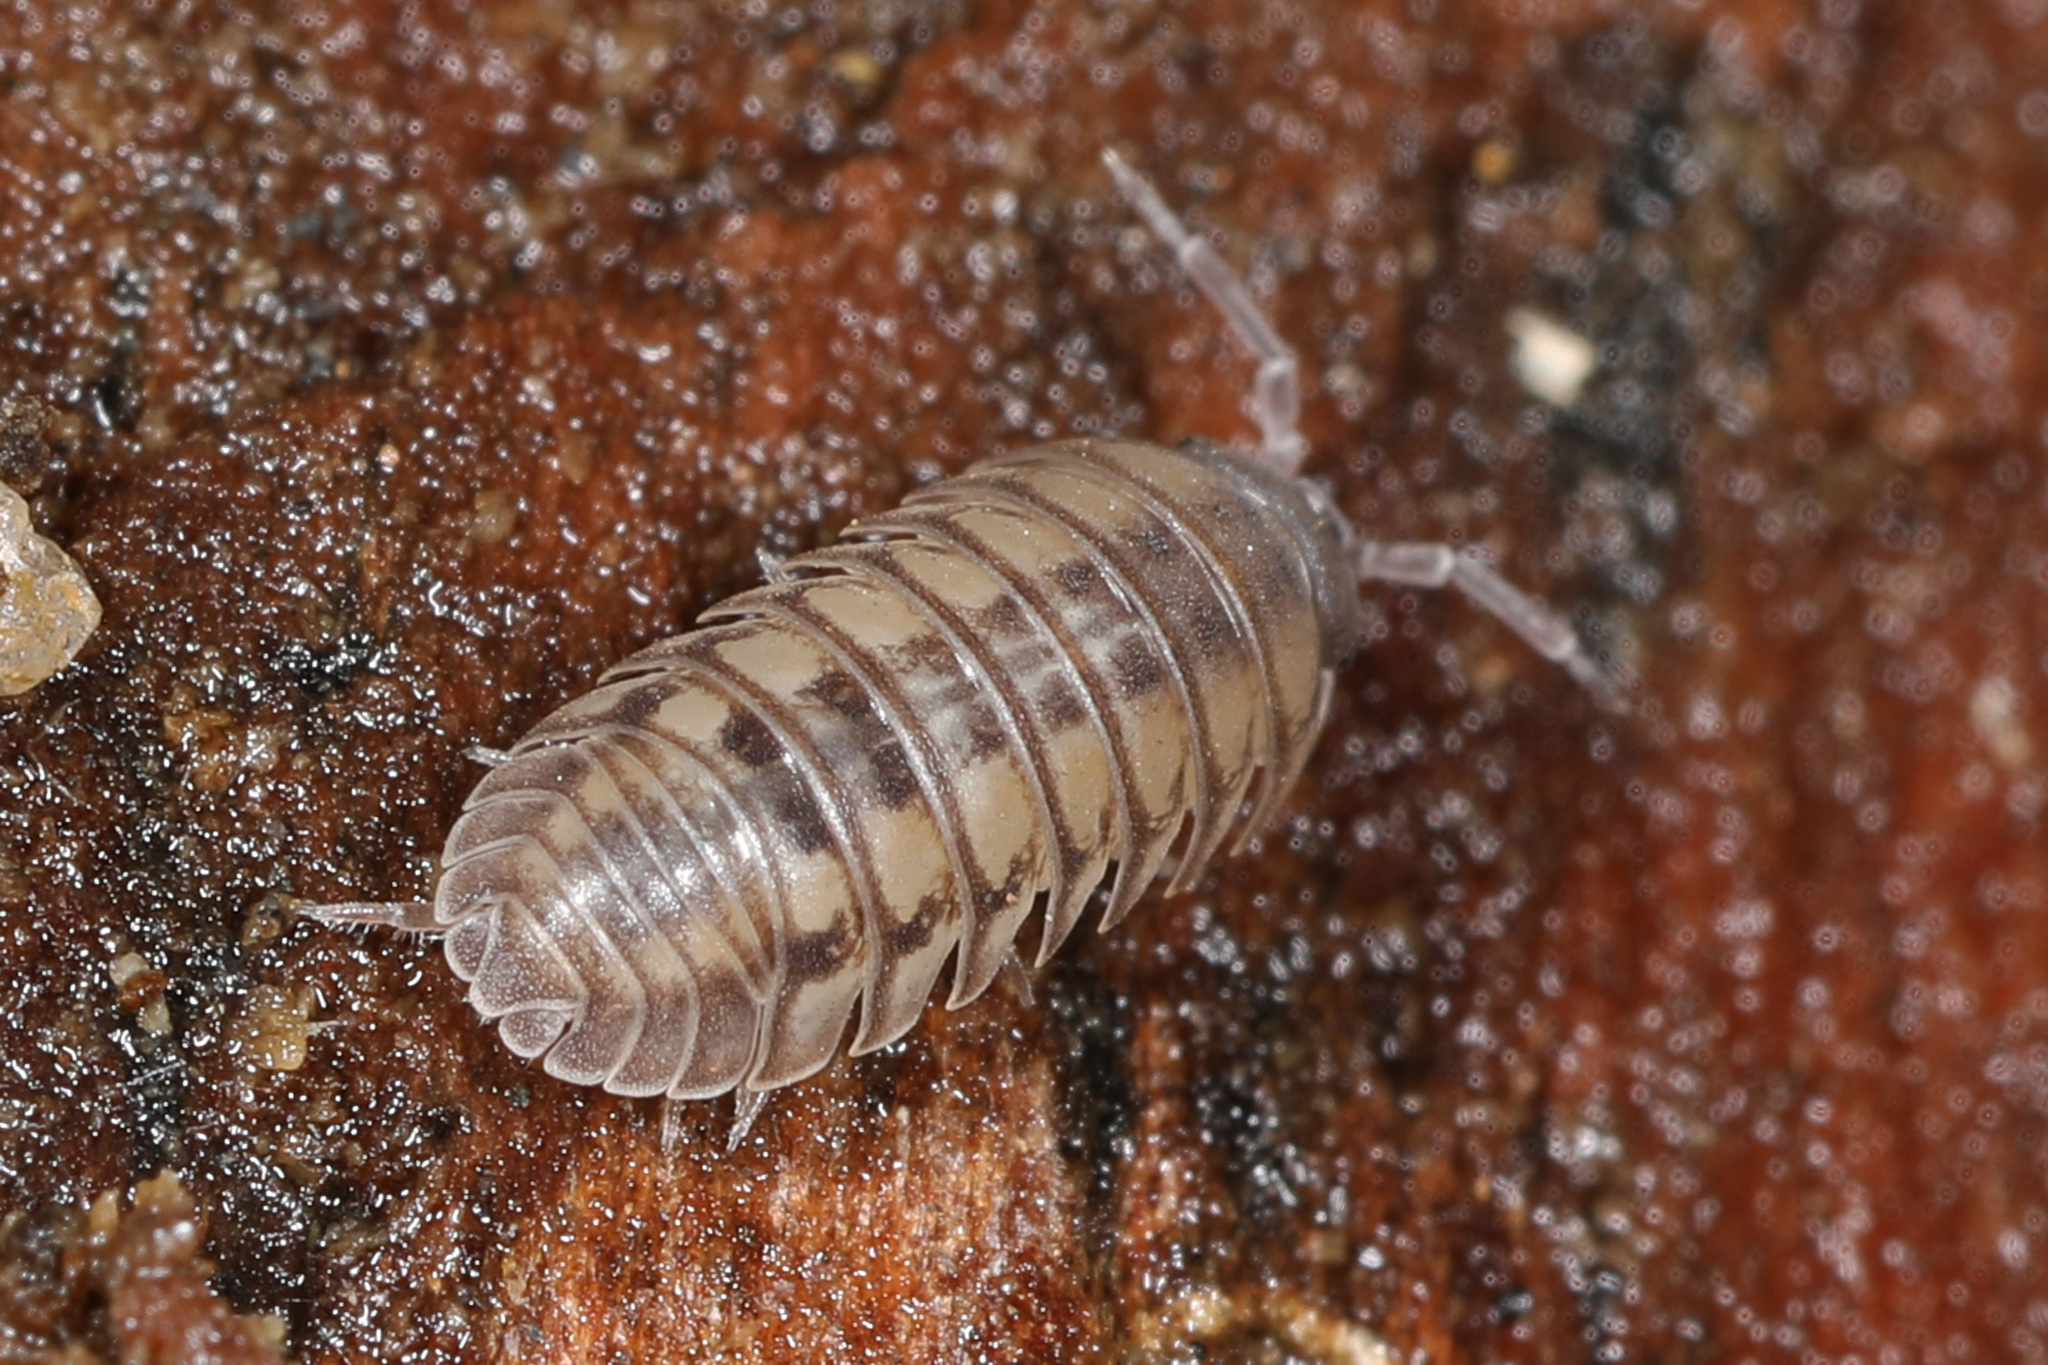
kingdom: Animalia
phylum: Arthropoda
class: Malacostraca
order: Isopoda
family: Armadillidiidae
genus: Armadillidium
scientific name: Armadillidium nasatum
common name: Isopod
